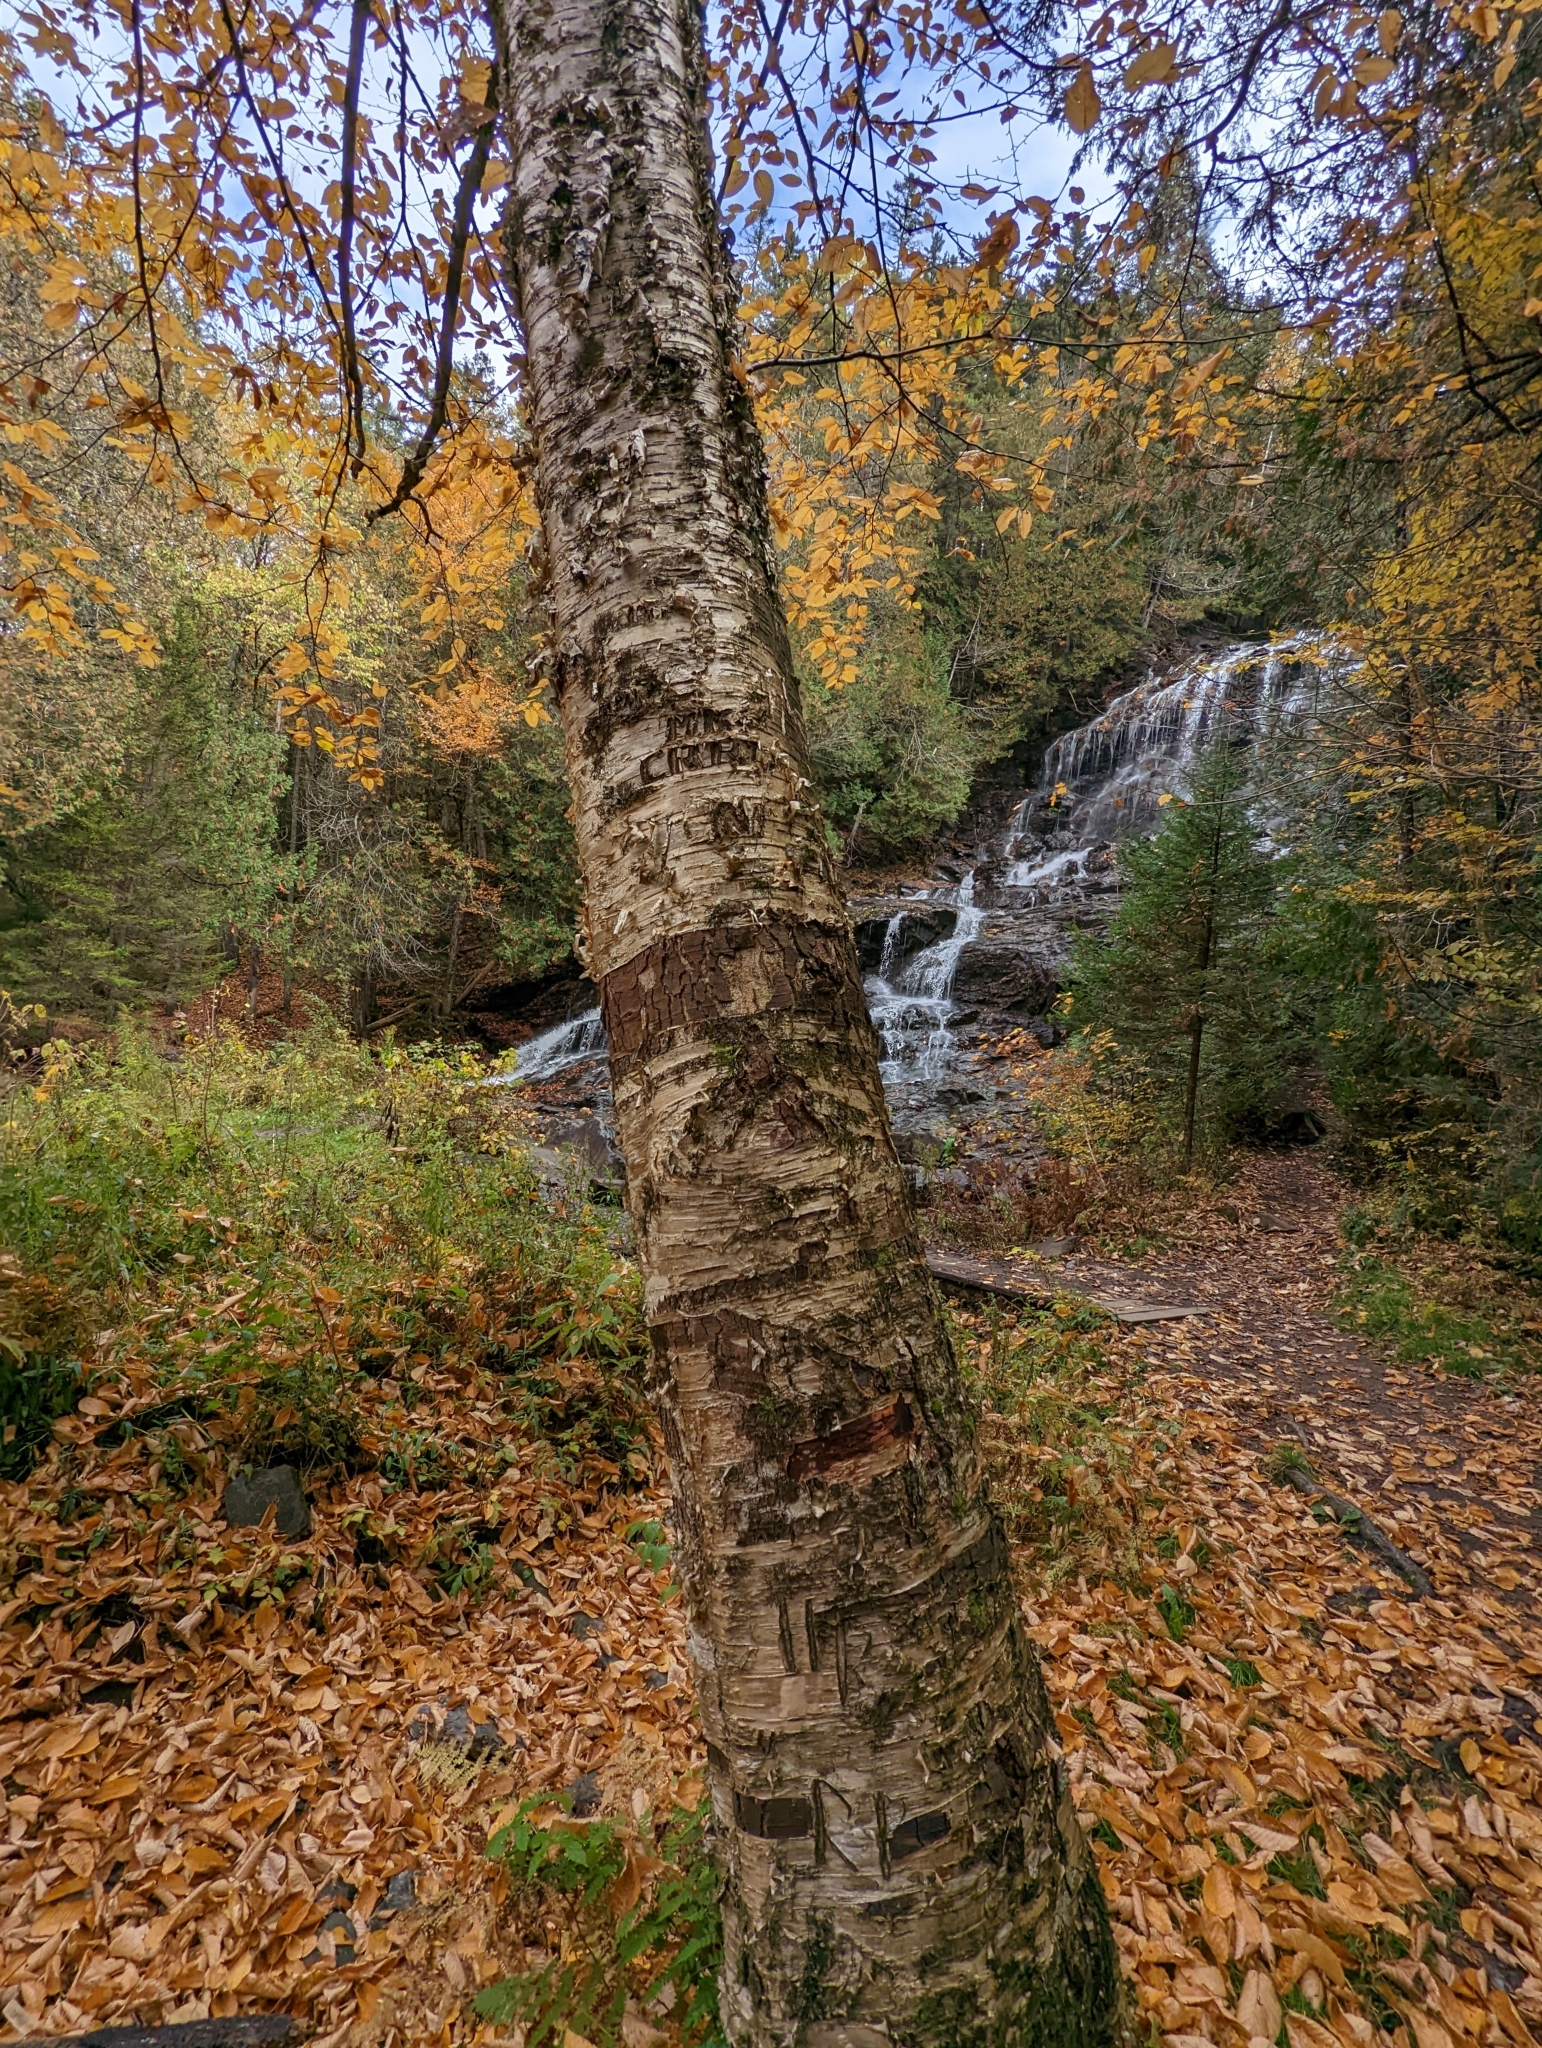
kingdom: Plantae
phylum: Tracheophyta
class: Magnoliopsida
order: Fagales
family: Betulaceae
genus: Betula
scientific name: Betula alleghaniensis
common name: Yellow birch
